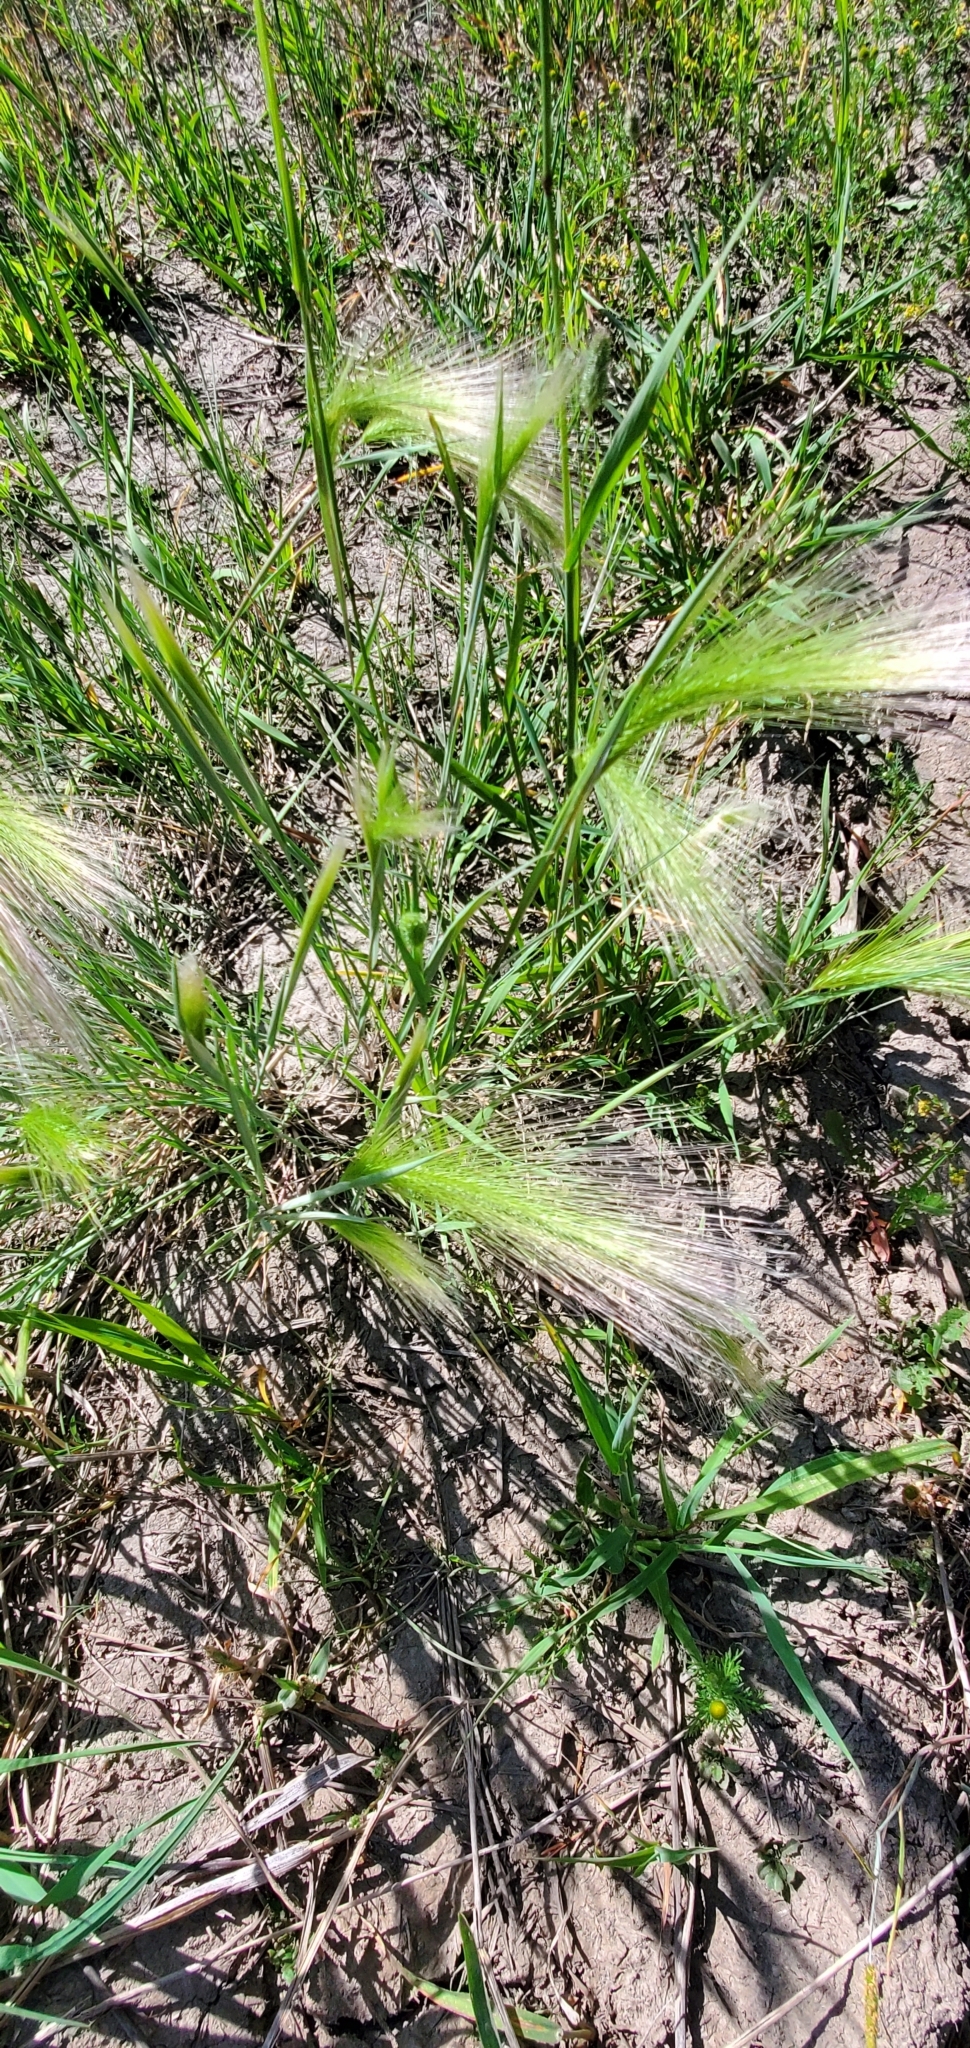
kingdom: Plantae
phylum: Tracheophyta
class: Liliopsida
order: Poales
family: Poaceae
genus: Hordeum
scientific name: Hordeum jubatum
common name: Foxtail barley
